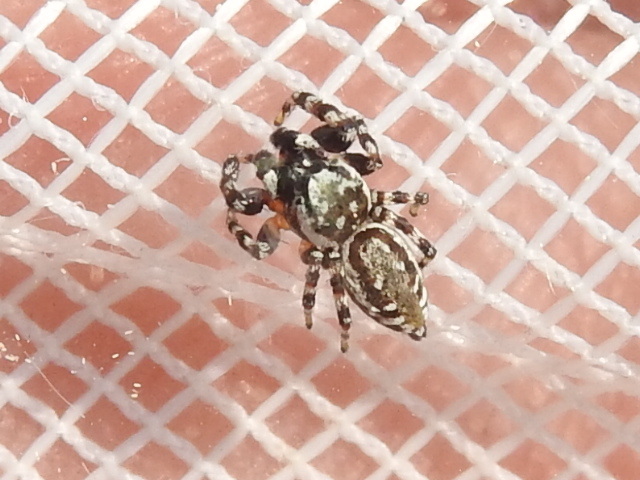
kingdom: Animalia
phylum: Arthropoda
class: Arachnida
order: Araneae
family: Salticidae
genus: Pelegrina
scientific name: Pelegrina galathea
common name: Jumping spiders
